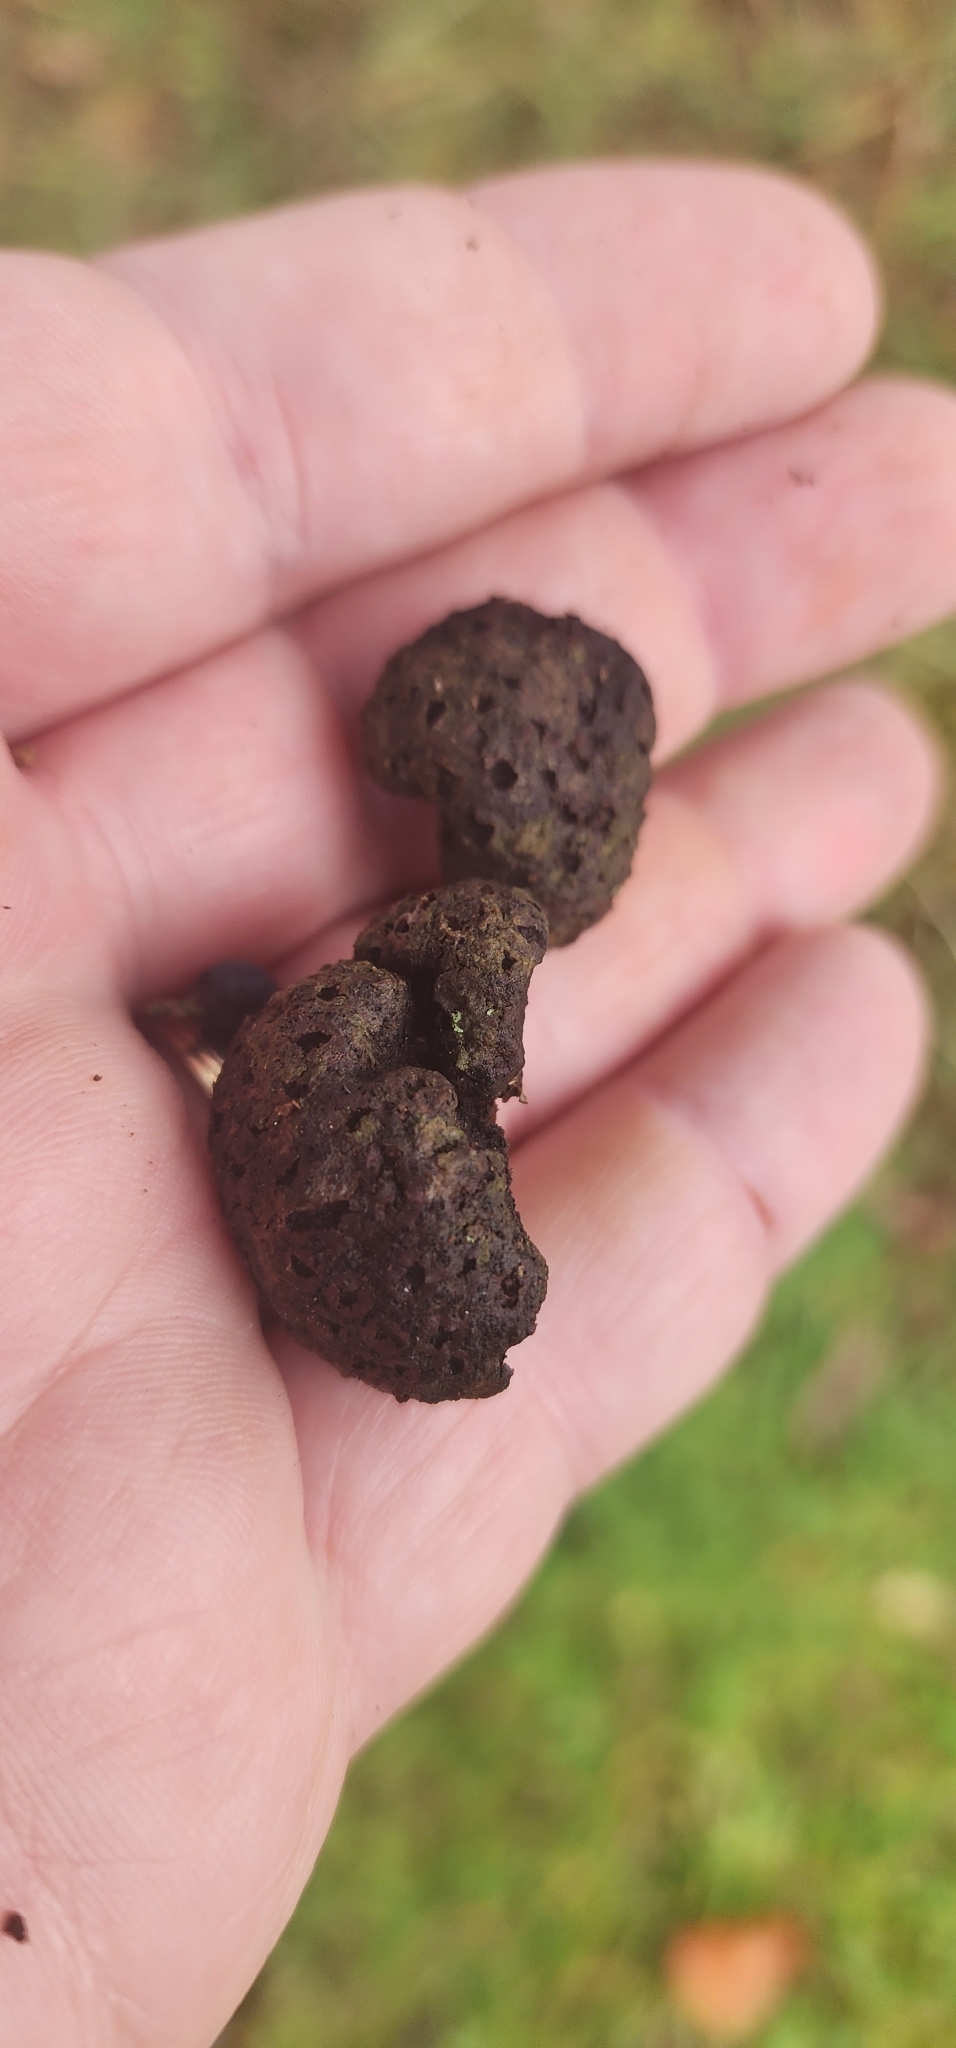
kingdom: Fungi
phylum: Basidiomycota
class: Pucciniomycetes
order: Pucciniales
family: Gymnosporangiaceae
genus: Gymnosporangium
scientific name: Gymnosporangium juniperi-virginianae
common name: Juniper-apple rust
